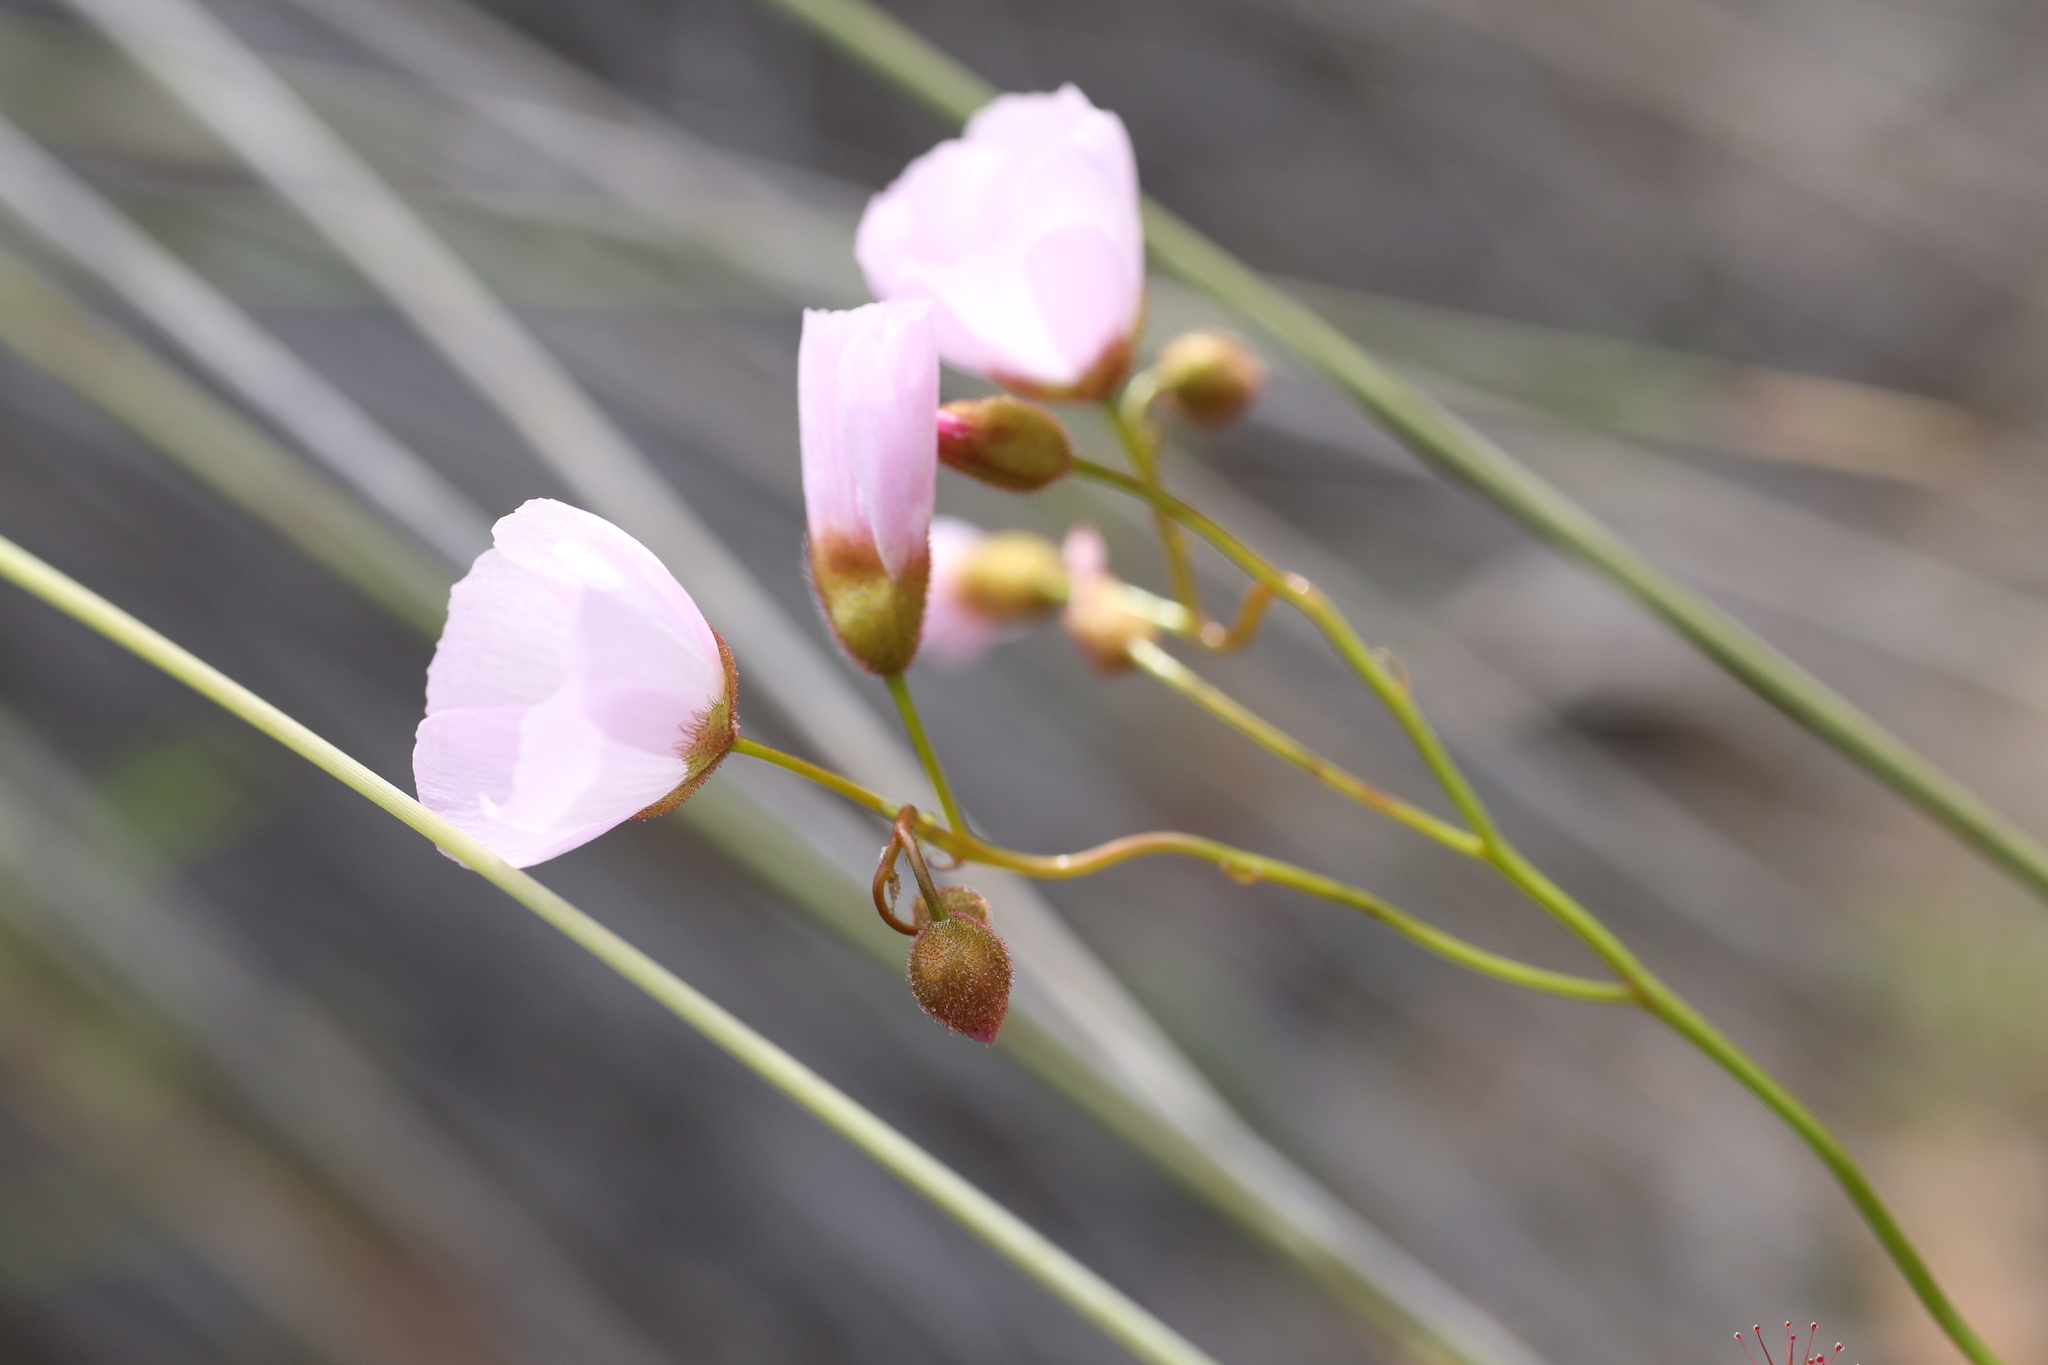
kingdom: Plantae
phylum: Tracheophyta
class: Magnoliopsida
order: Caryophyllales
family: Droseraceae
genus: Drosera
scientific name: Drosera
